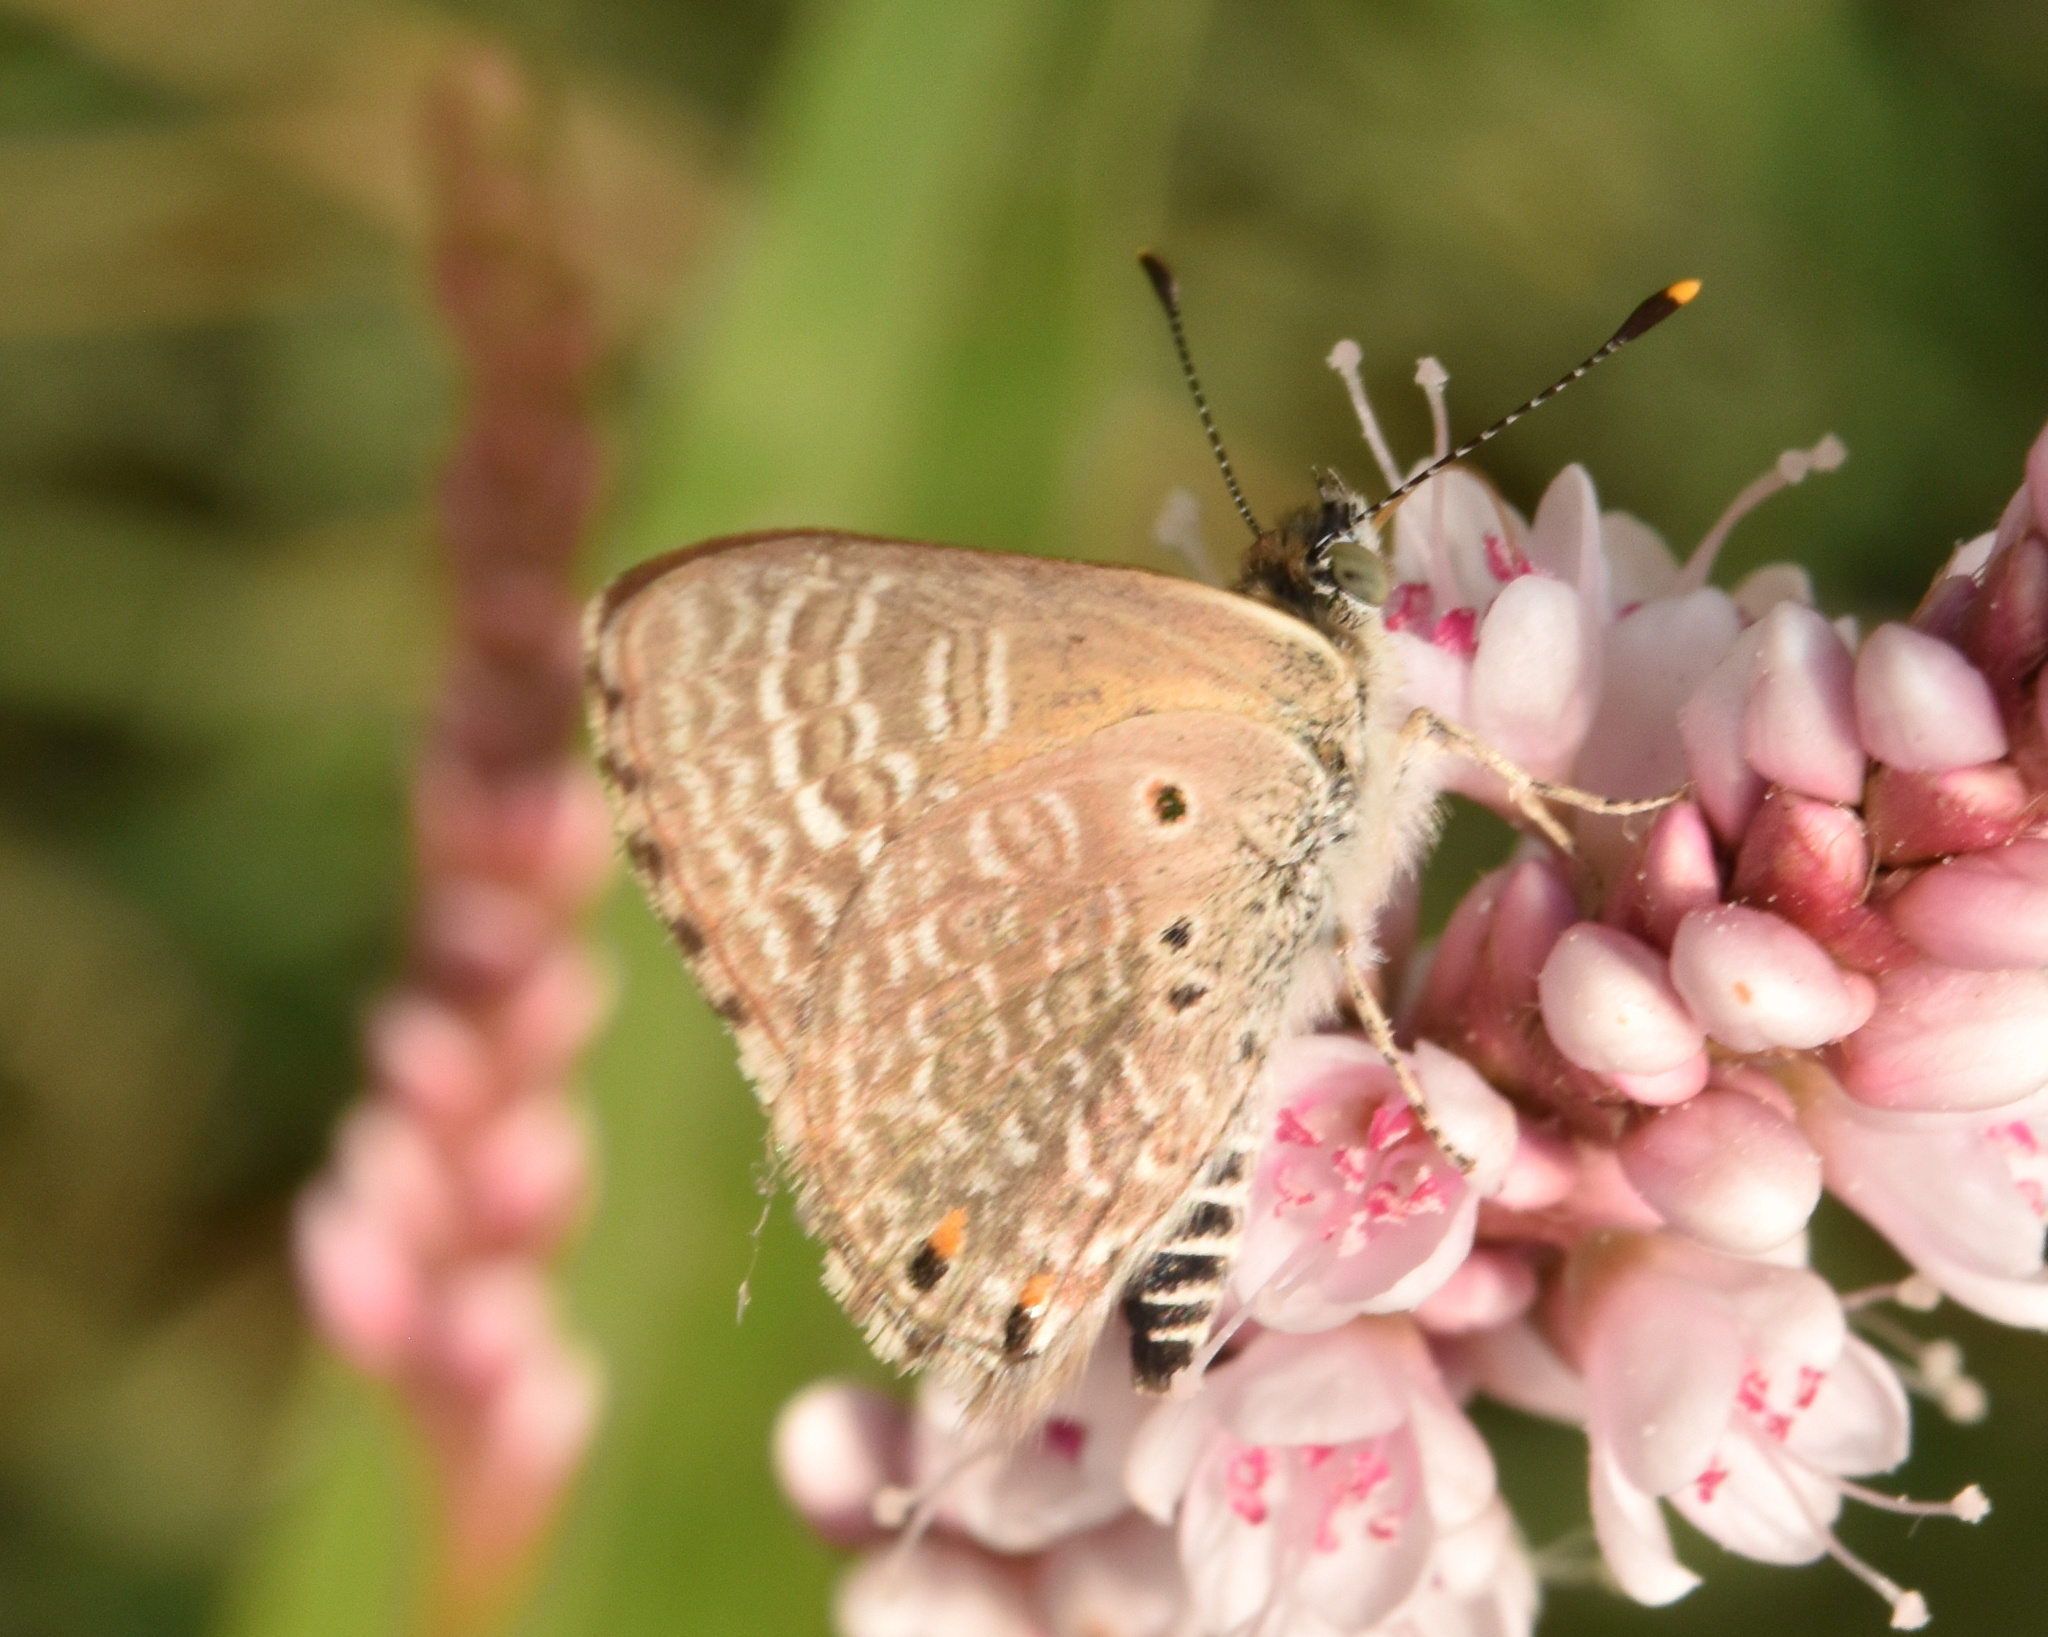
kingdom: Animalia
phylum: Arthropoda
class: Insecta
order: Lepidoptera
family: Lycaenidae
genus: Anthene
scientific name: Anthene dulcis
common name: Mashuna hairtail
